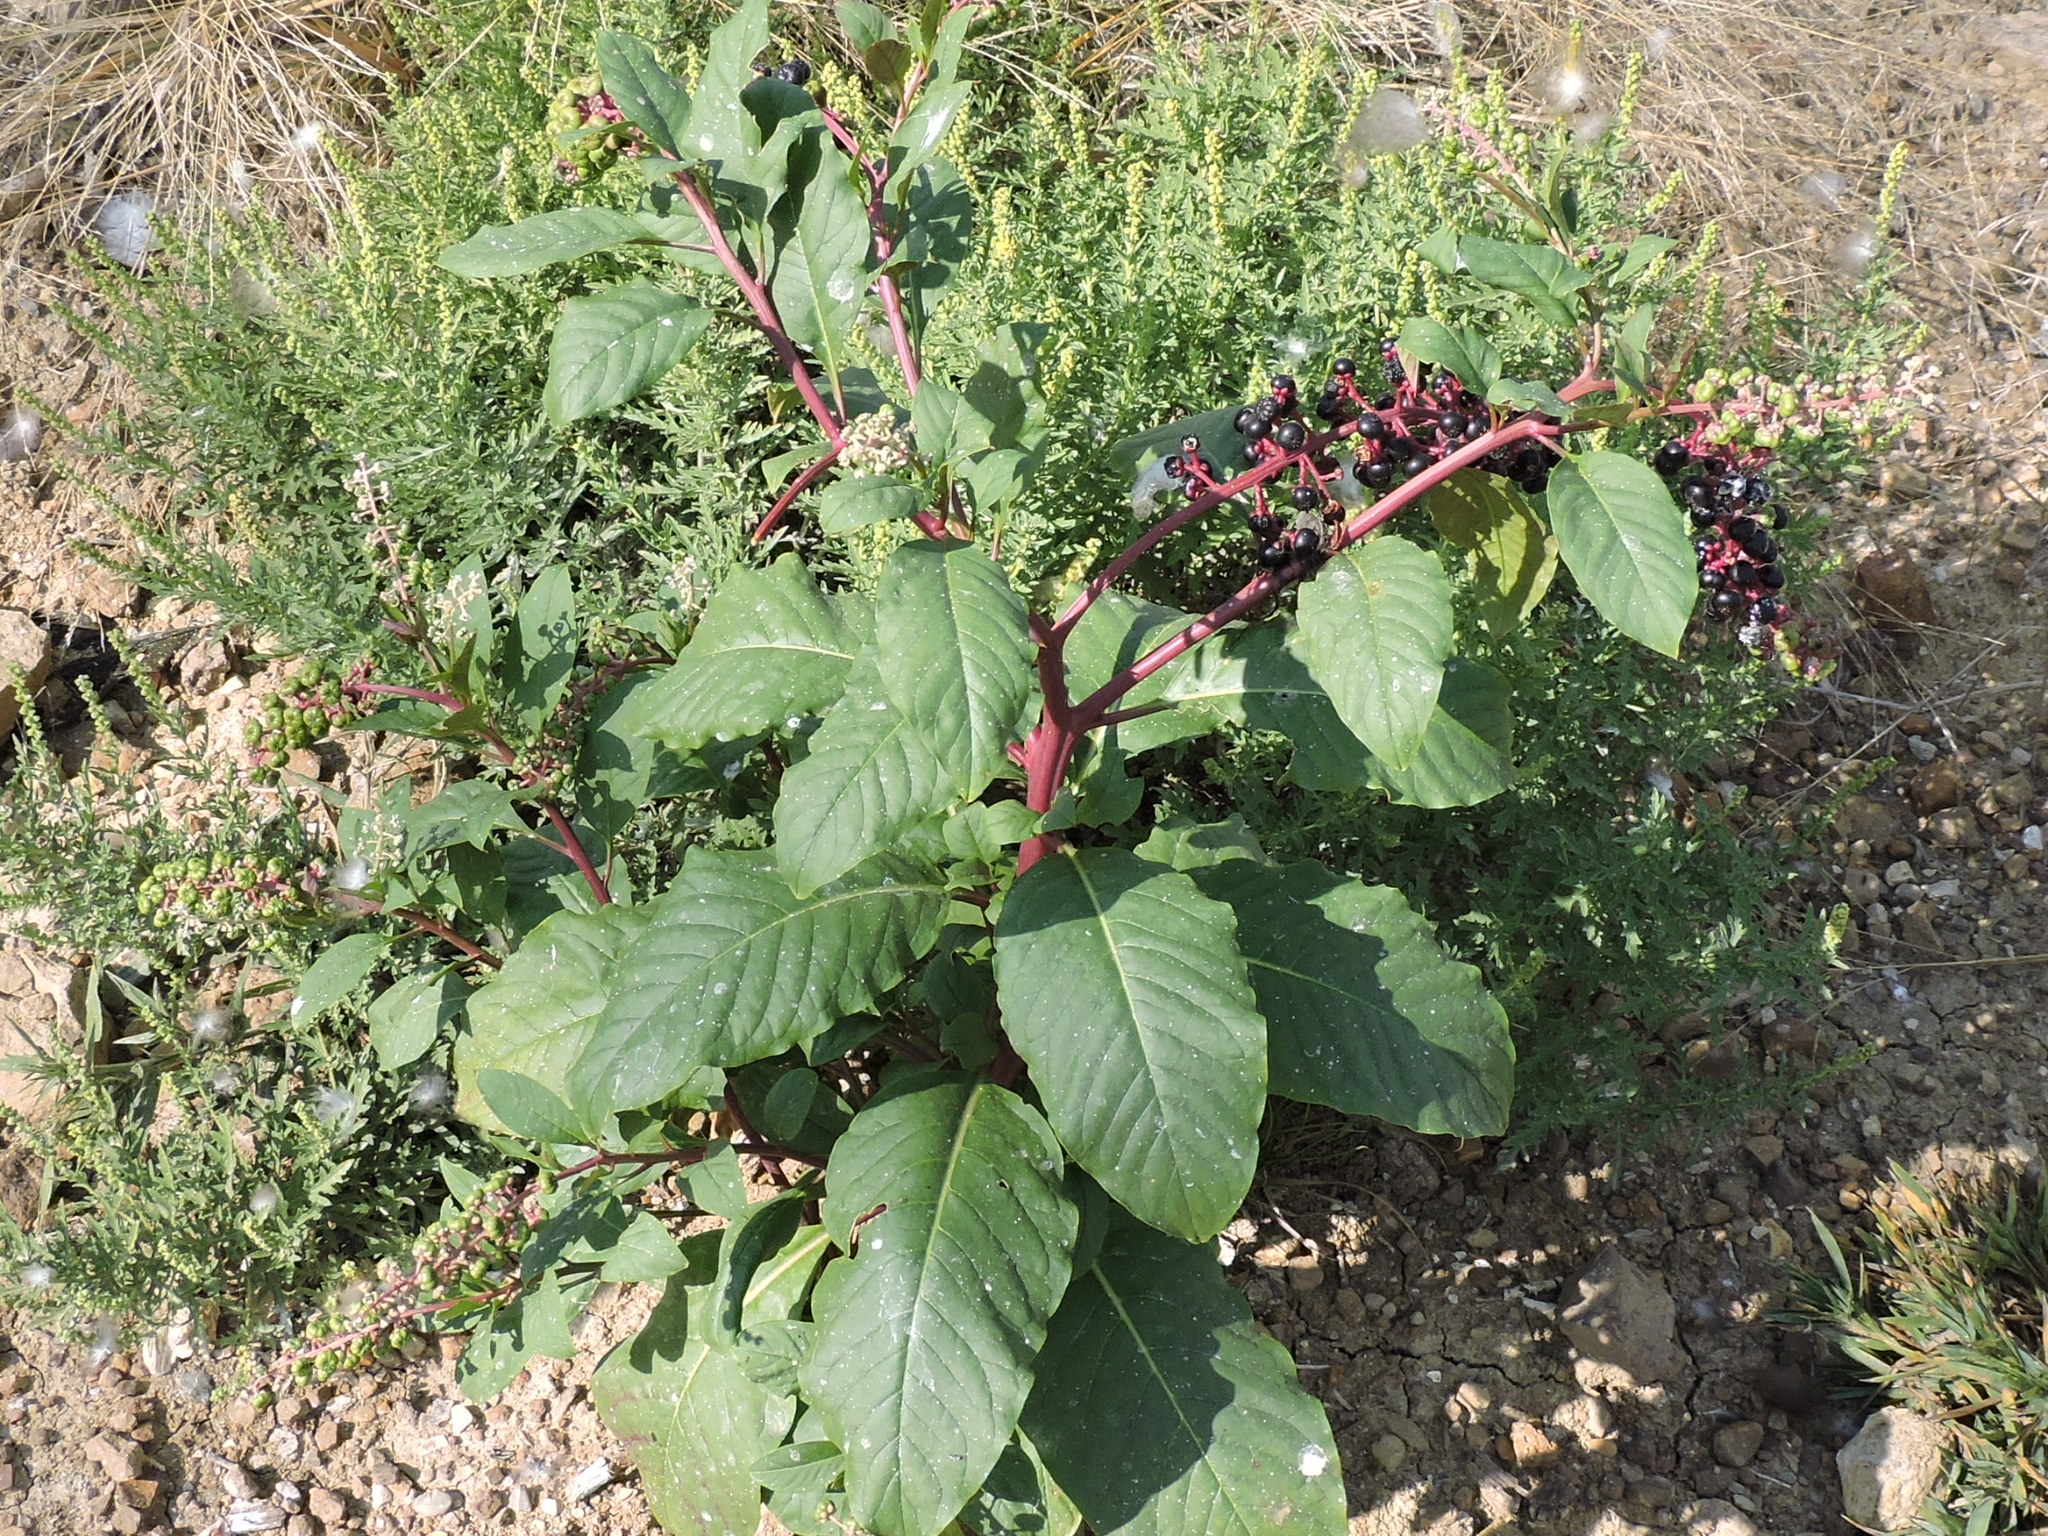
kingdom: Plantae
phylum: Tracheophyta
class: Magnoliopsida
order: Caryophyllales
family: Phytolaccaceae
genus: Phytolacca
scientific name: Phytolacca americana
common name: American pokeweed
